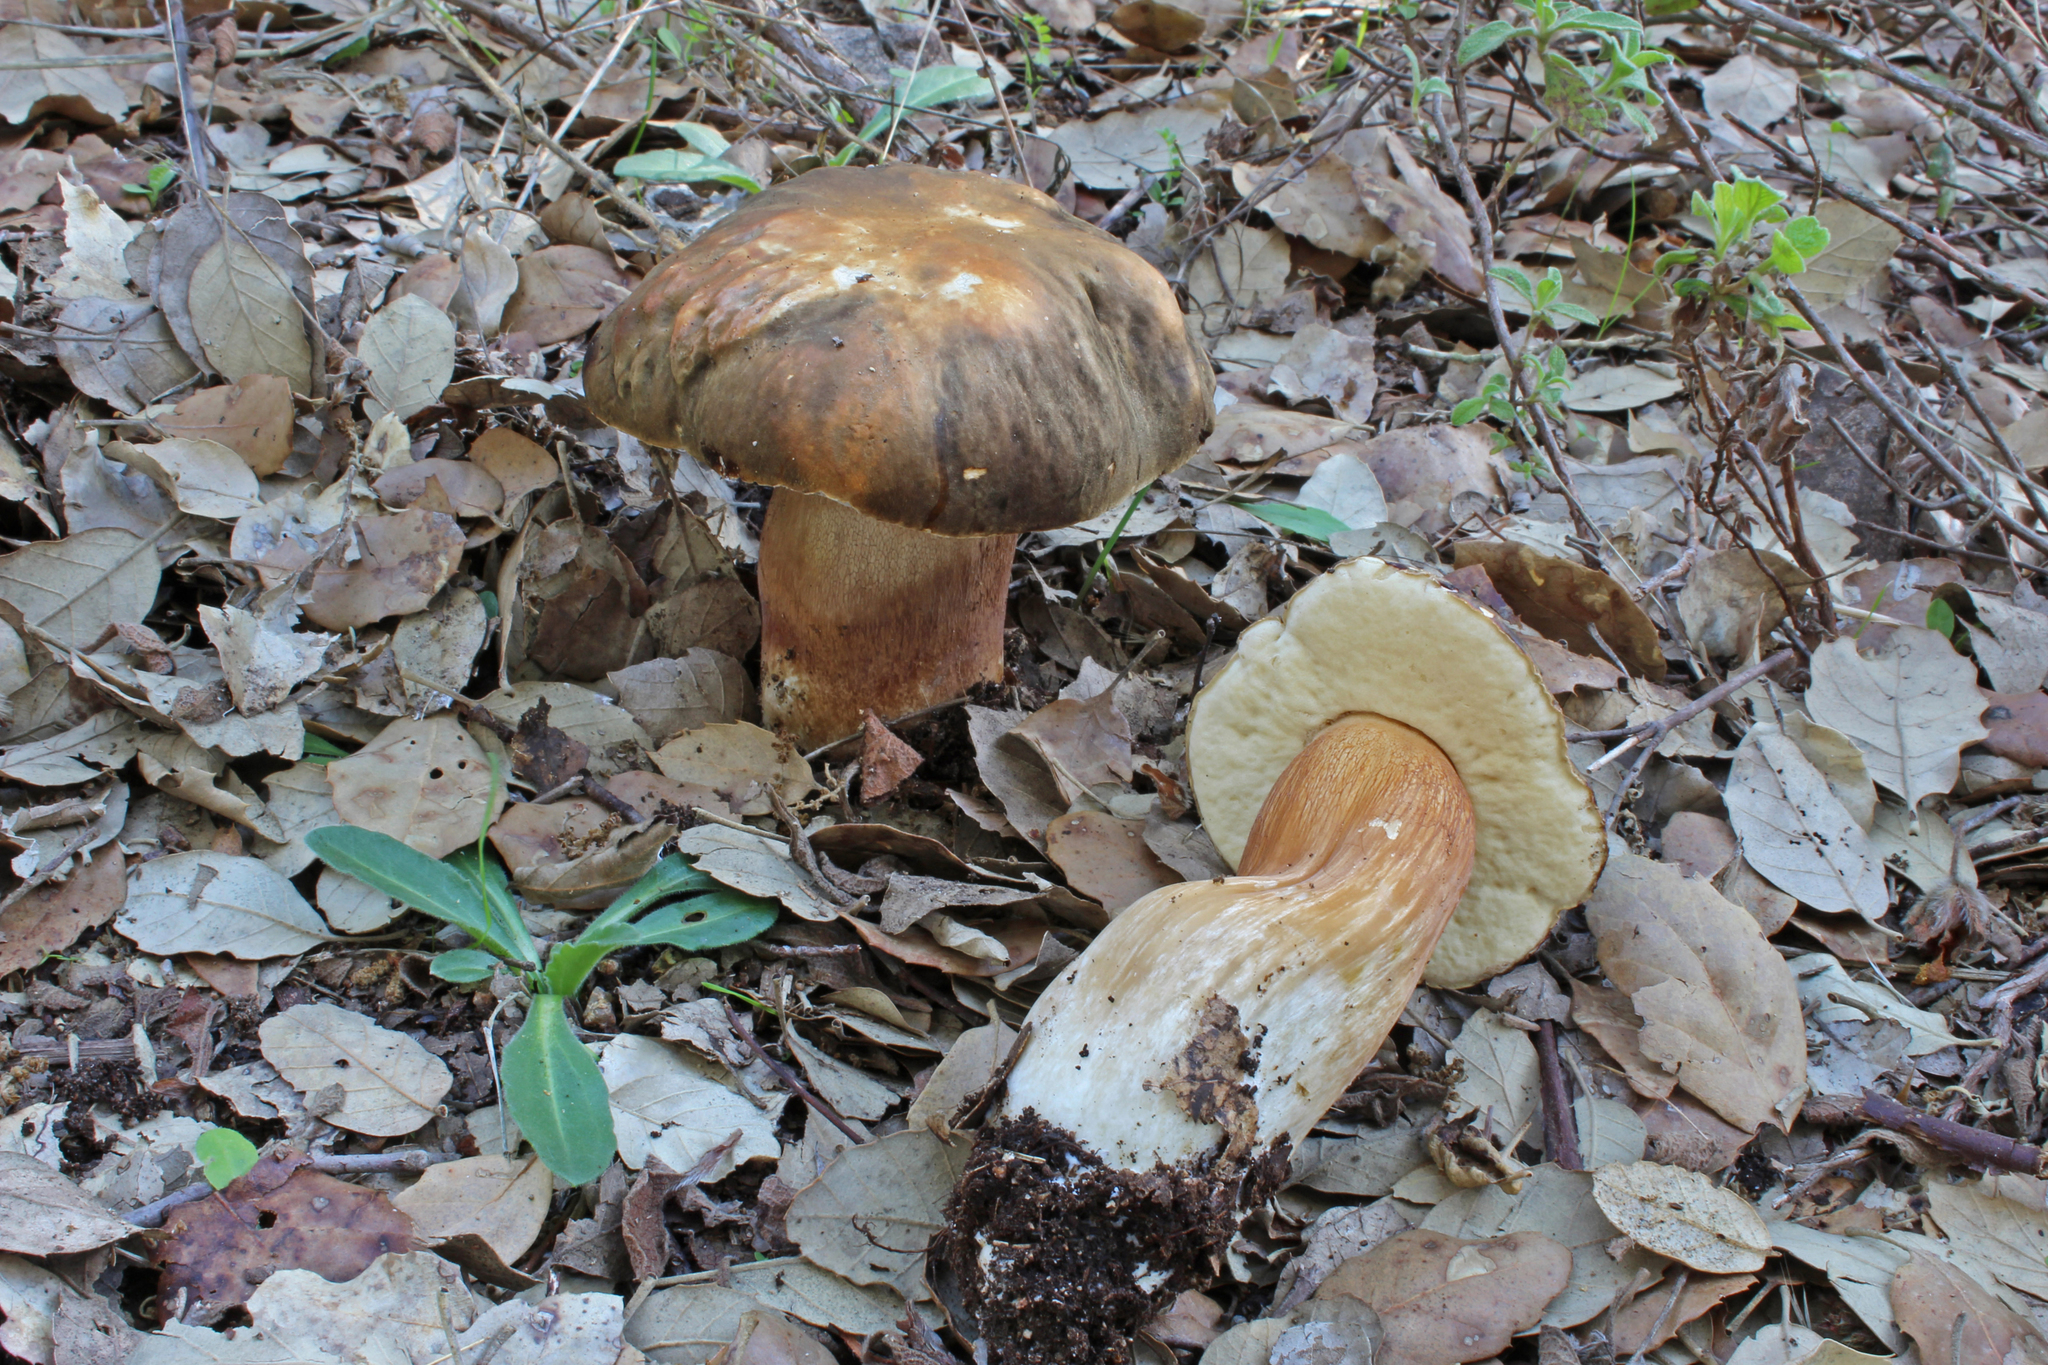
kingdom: Fungi
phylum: Basidiomycota
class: Agaricomycetes
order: Boletales
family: Boletaceae
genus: Boletus
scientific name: Boletus aereus
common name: Bronze bolete
